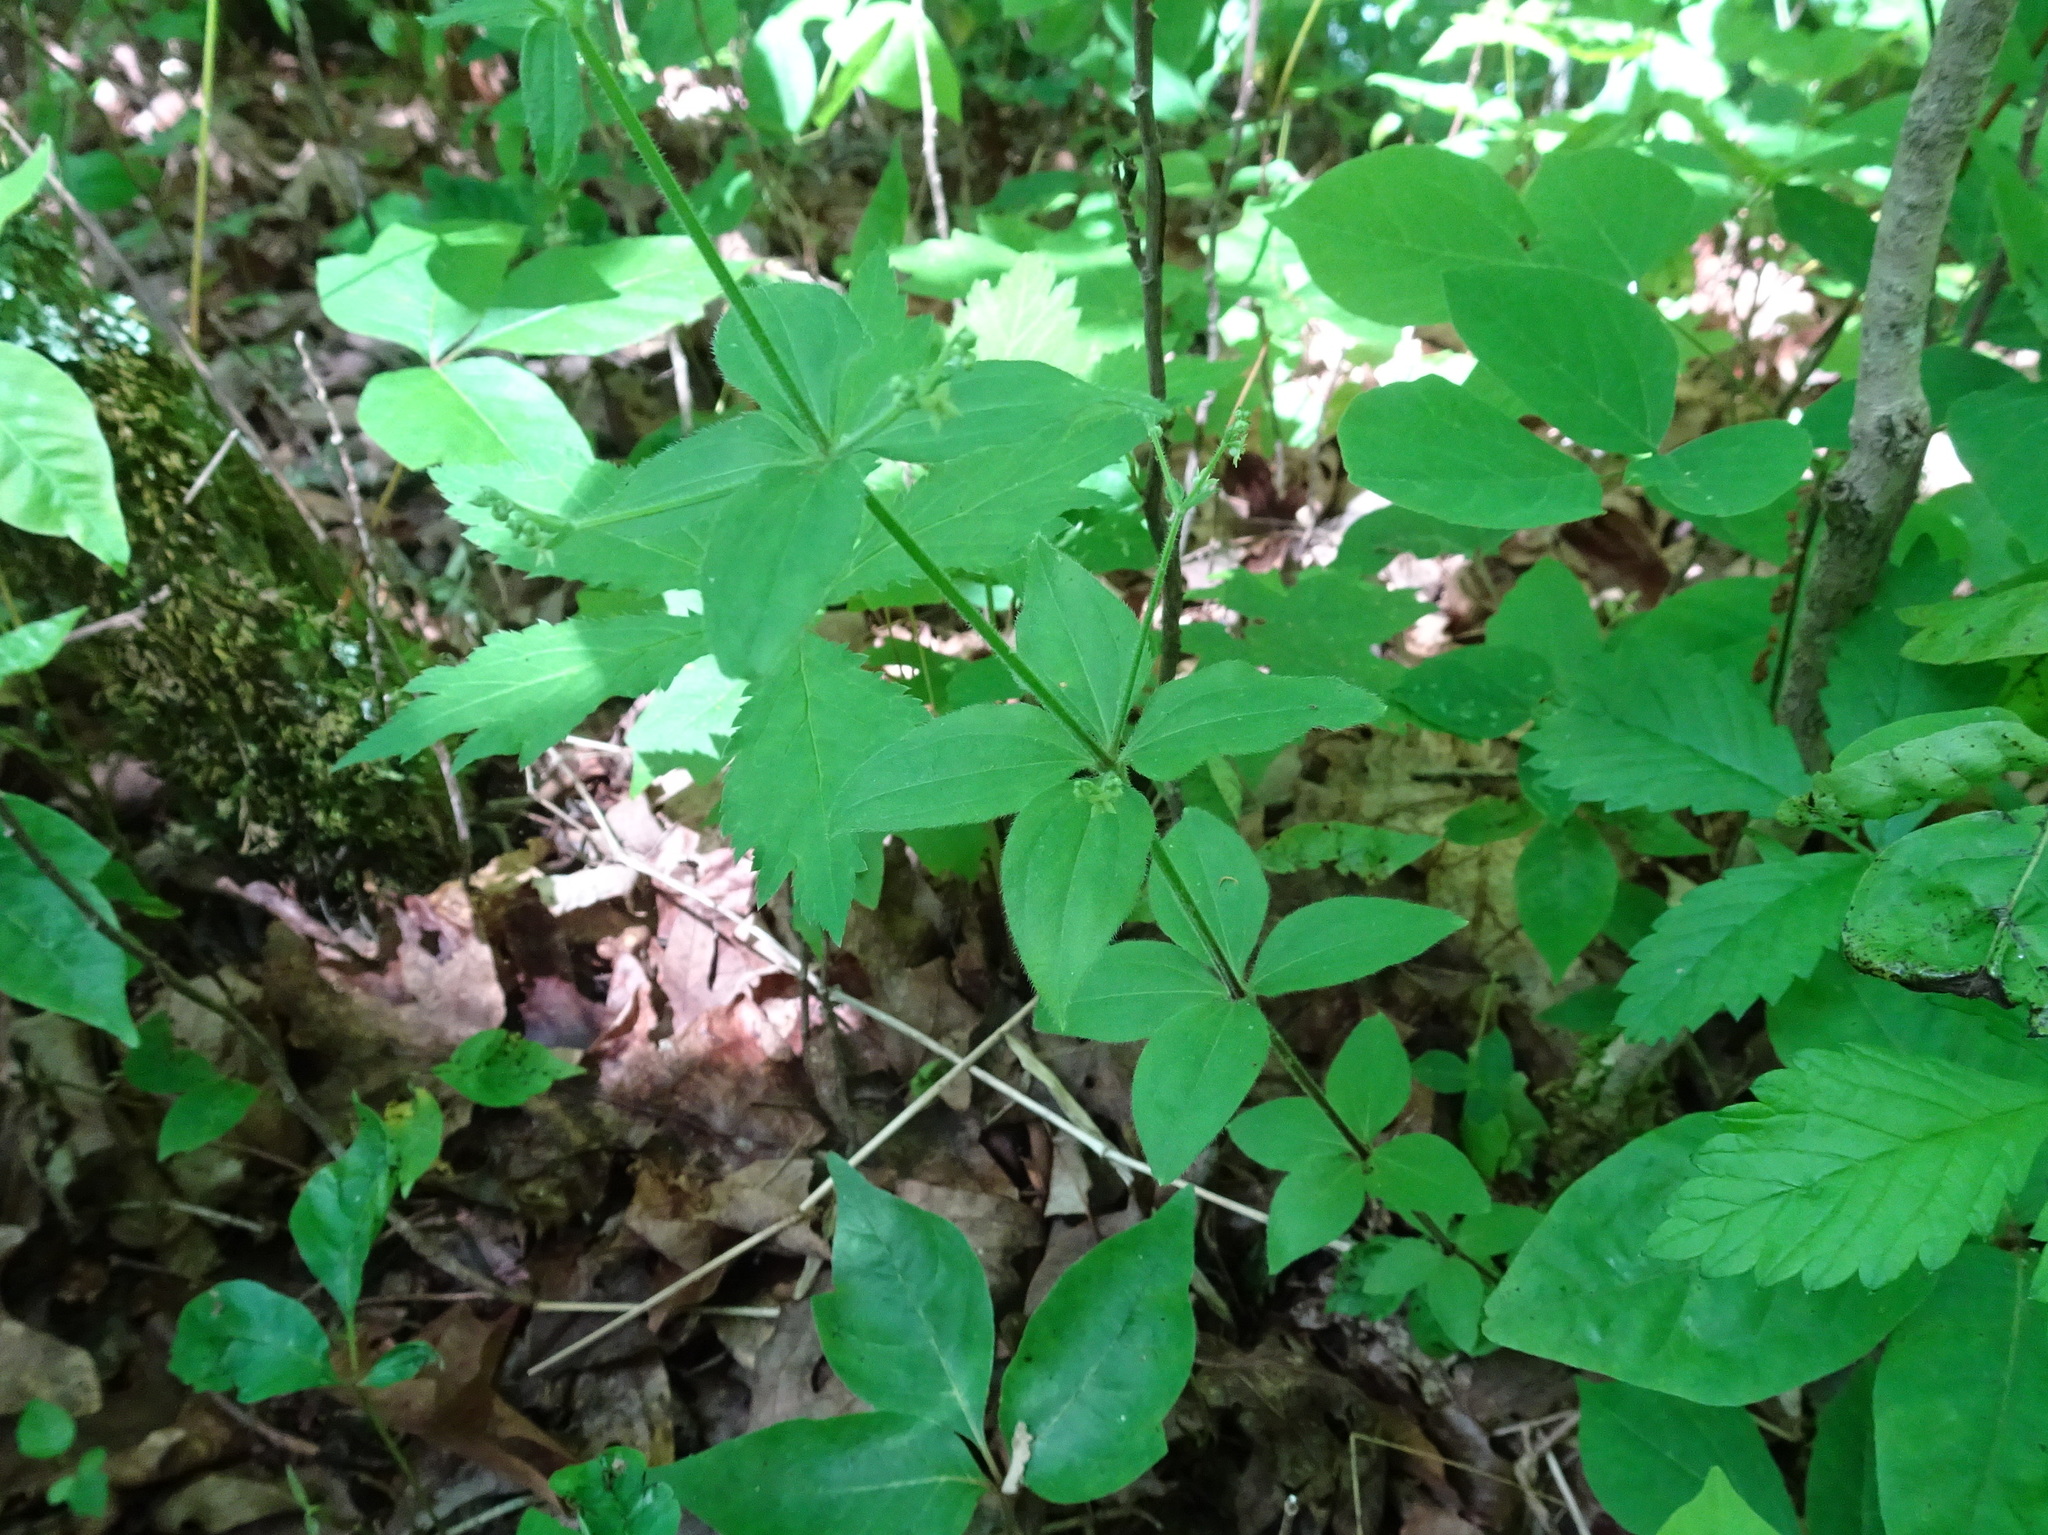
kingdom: Plantae
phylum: Tracheophyta
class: Magnoliopsida
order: Gentianales
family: Rubiaceae
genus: Galium
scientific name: Galium circaezans
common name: Forest bedstraw
